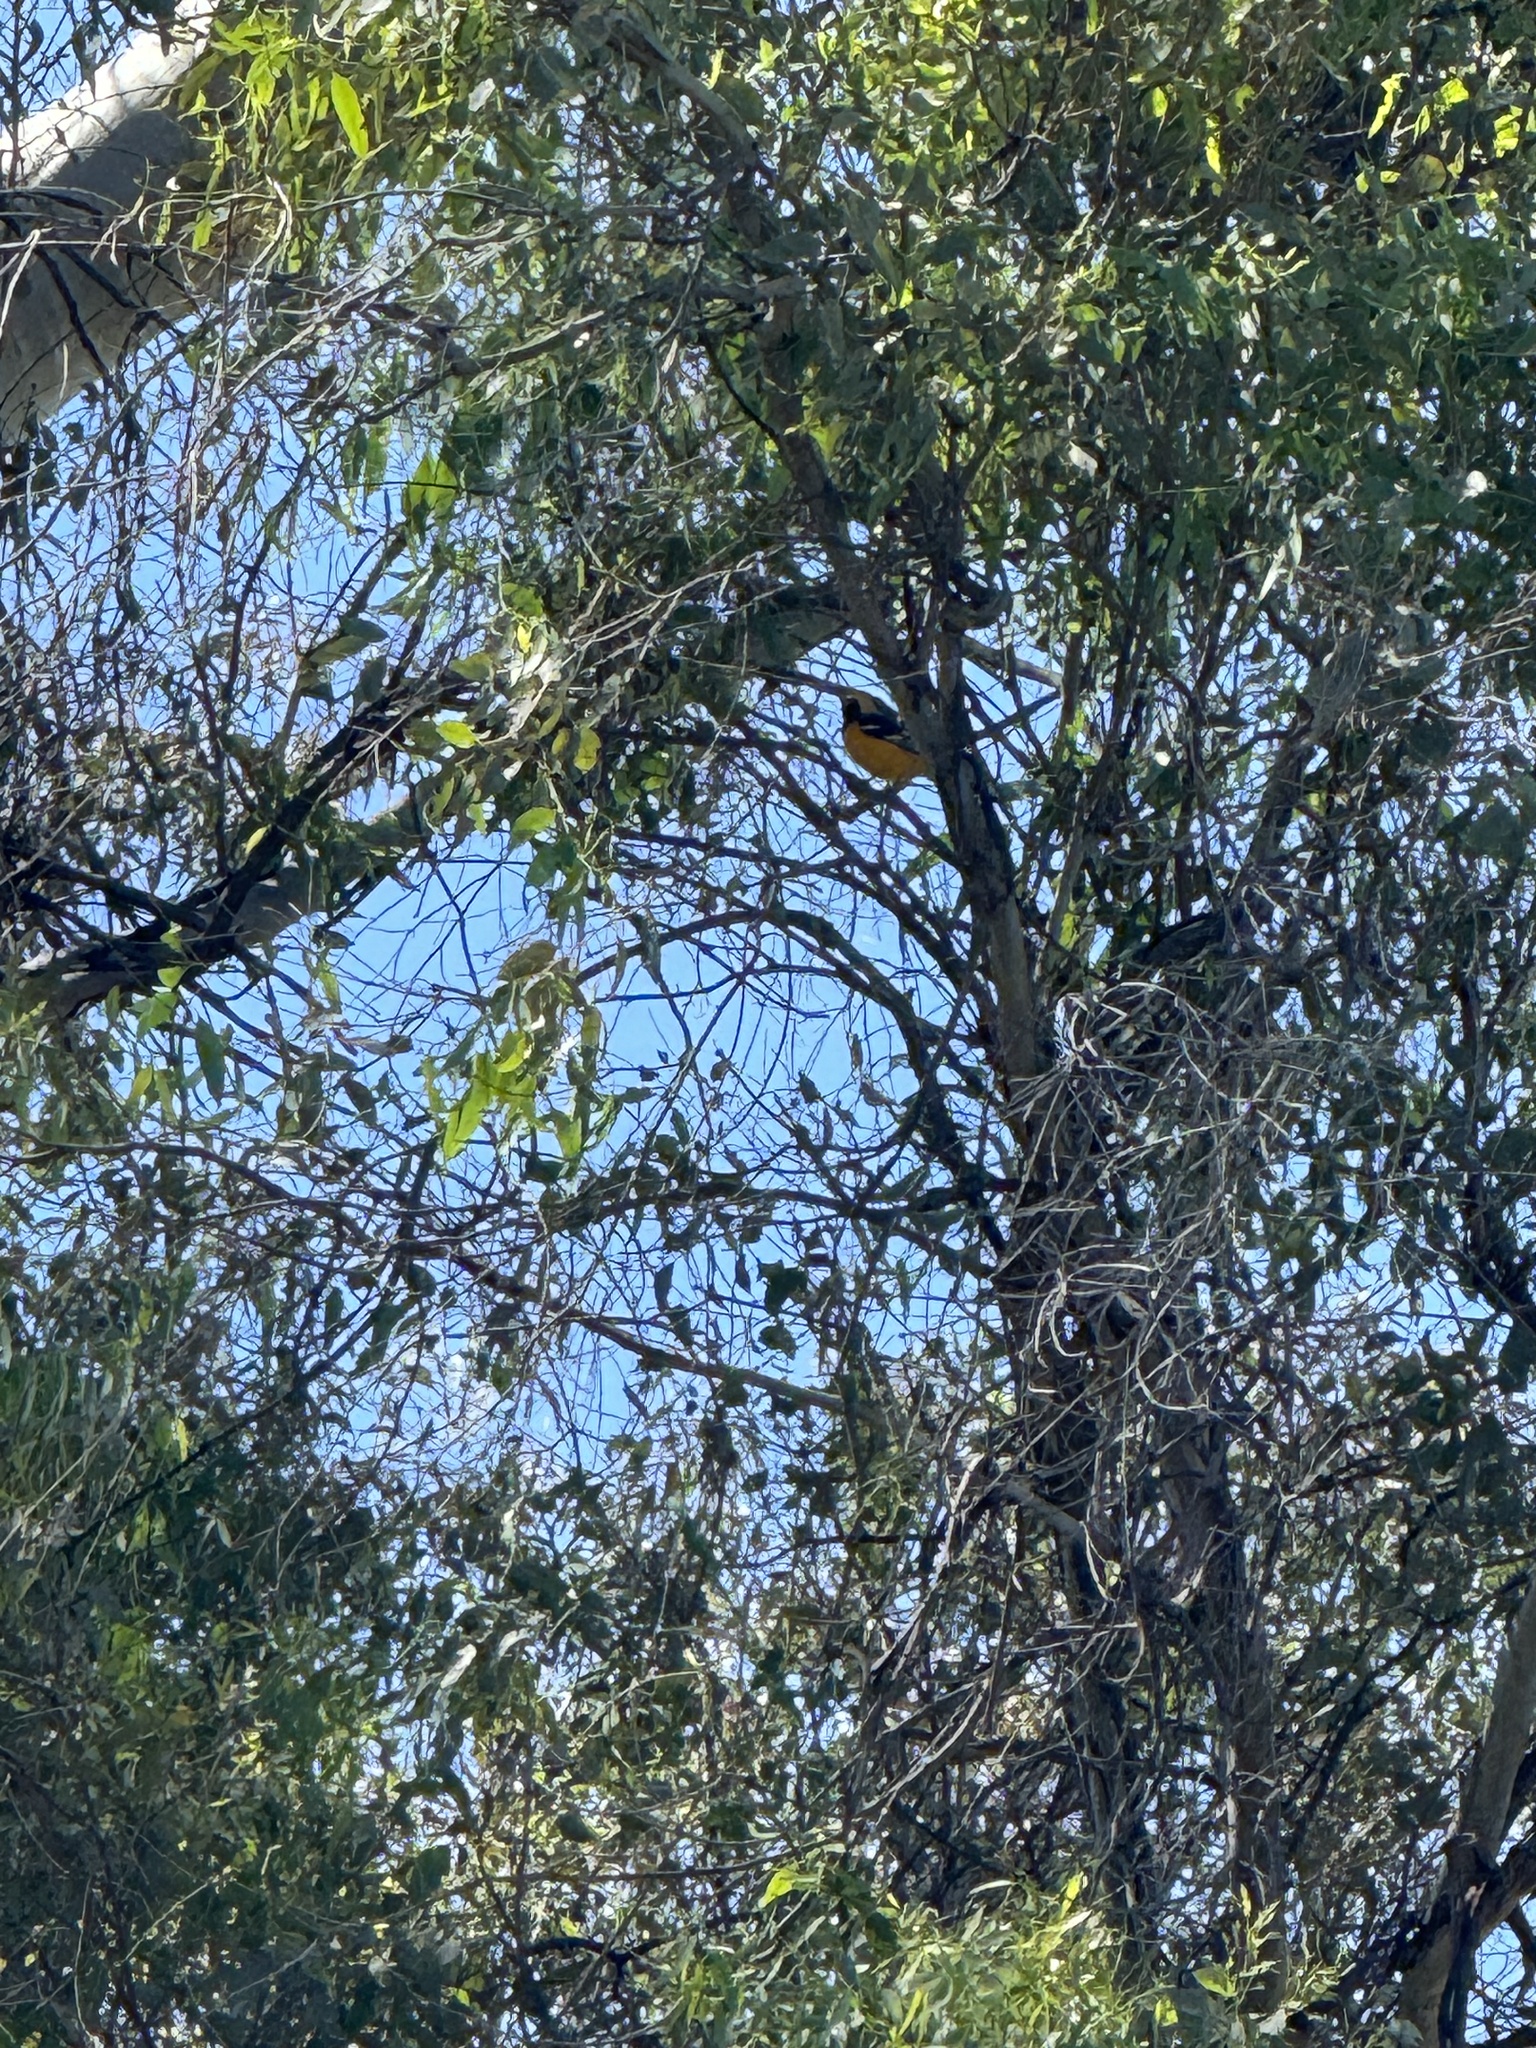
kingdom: Animalia
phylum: Chordata
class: Aves
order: Passeriformes
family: Icteridae
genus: Icterus
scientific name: Icterus cucullatus
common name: Hooded oriole
